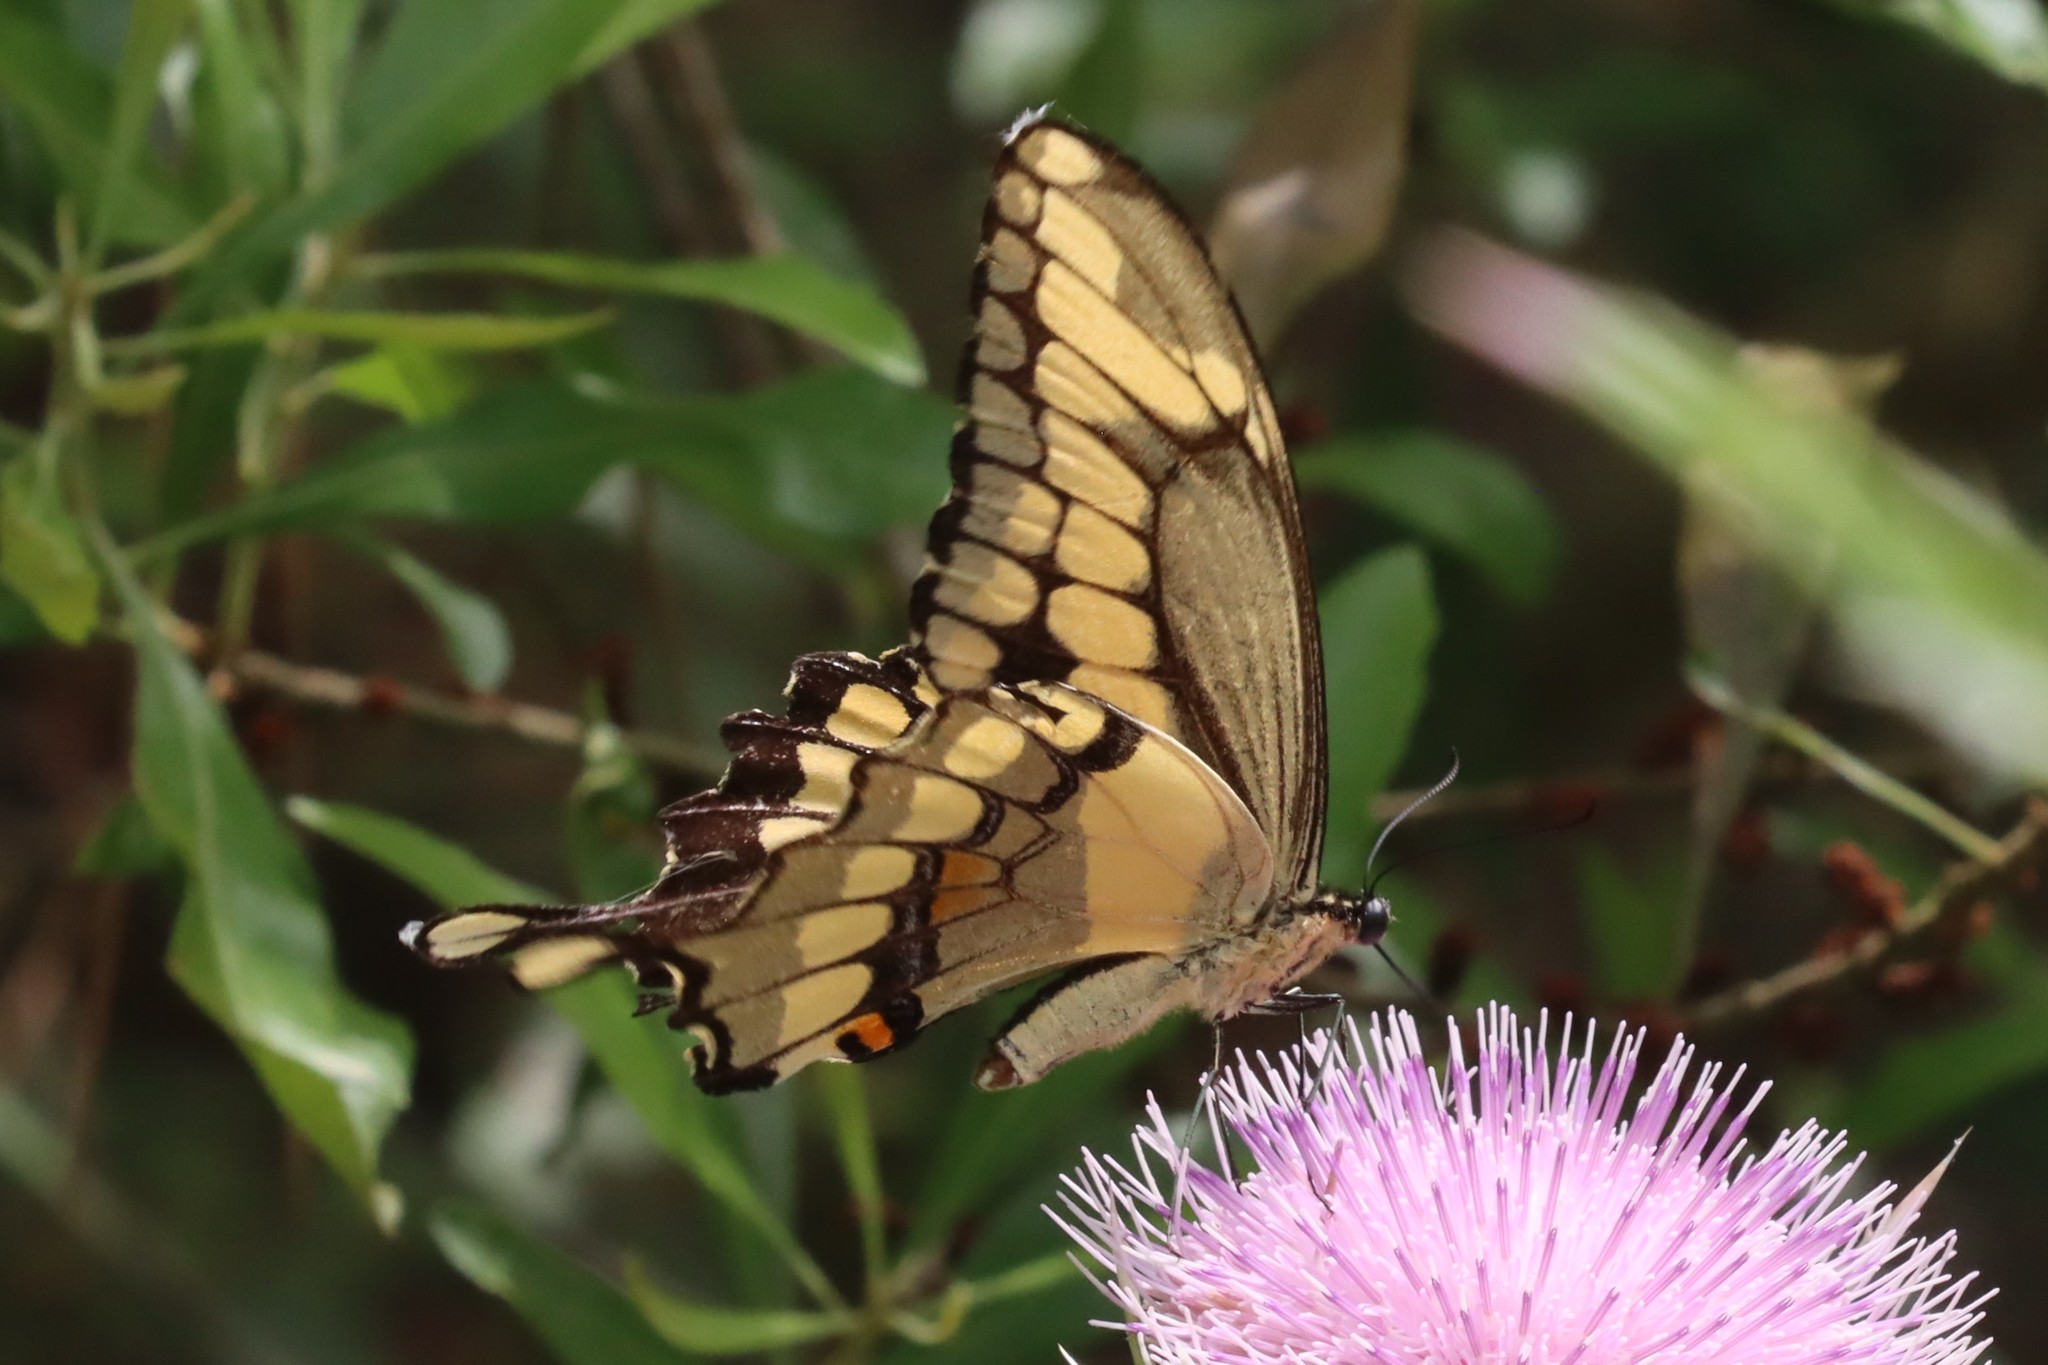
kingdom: Animalia
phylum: Arthropoda
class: Insecta
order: Lepidoptera
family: Papilionidae
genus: Papilio
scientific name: Papilio cresphontes
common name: Giant swallowtail
